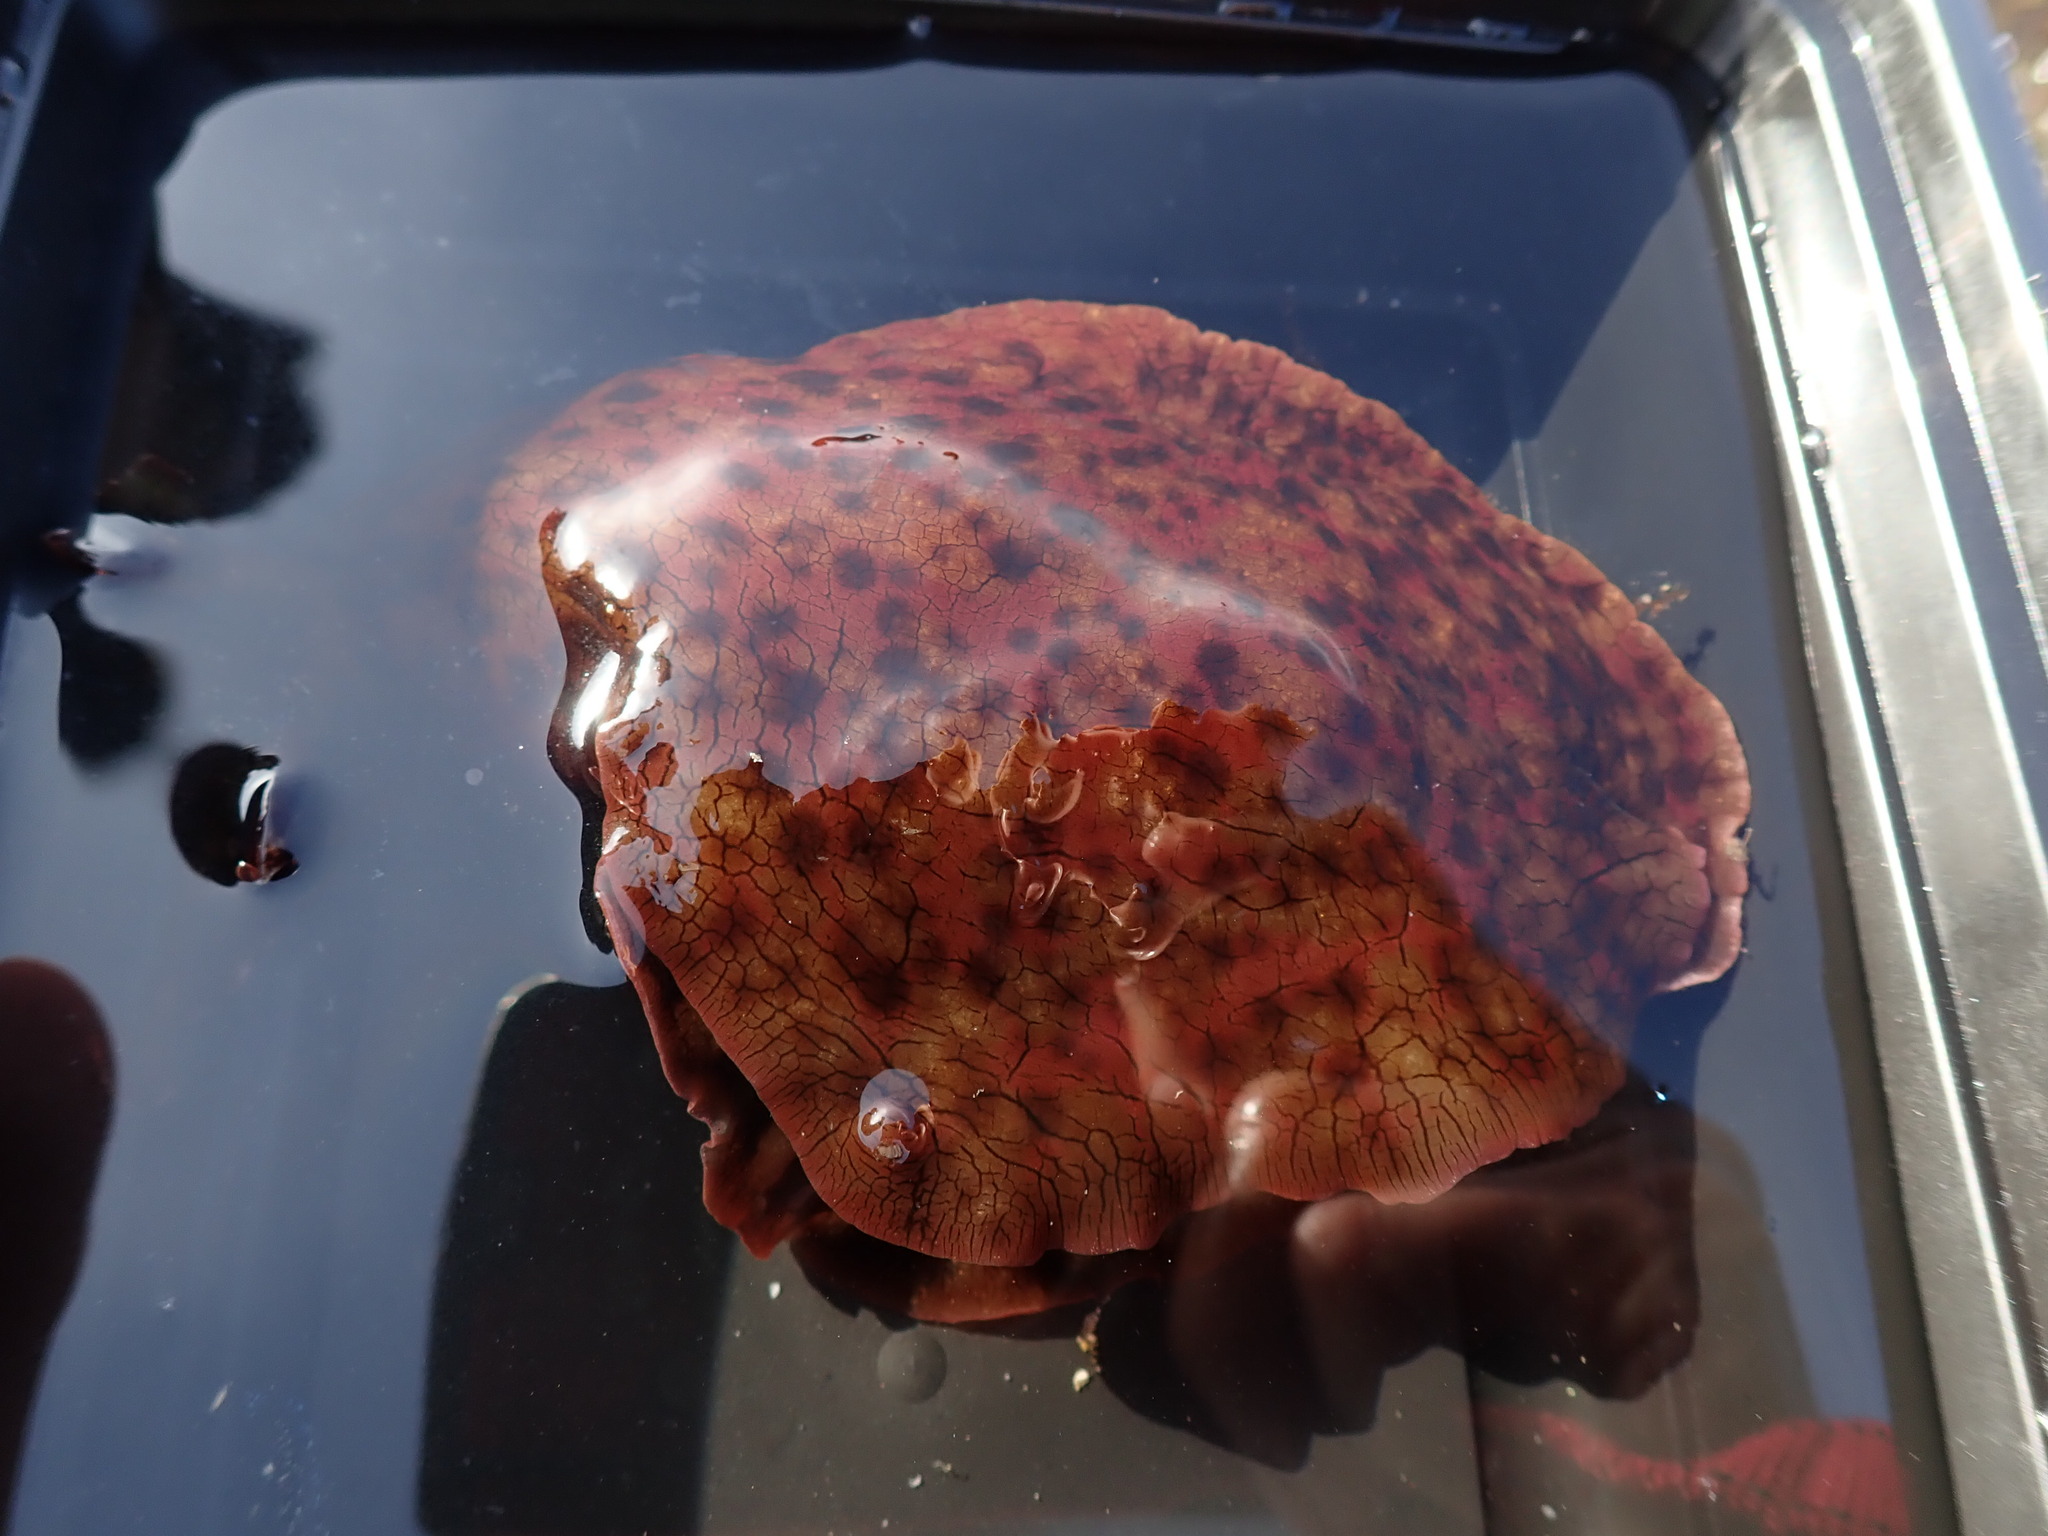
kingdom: Animalia
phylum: Mollusca
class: Gastropoda
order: Aplysiida
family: Aplysiidae
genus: Aplysia
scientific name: Aplysia californica
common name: California seahare
